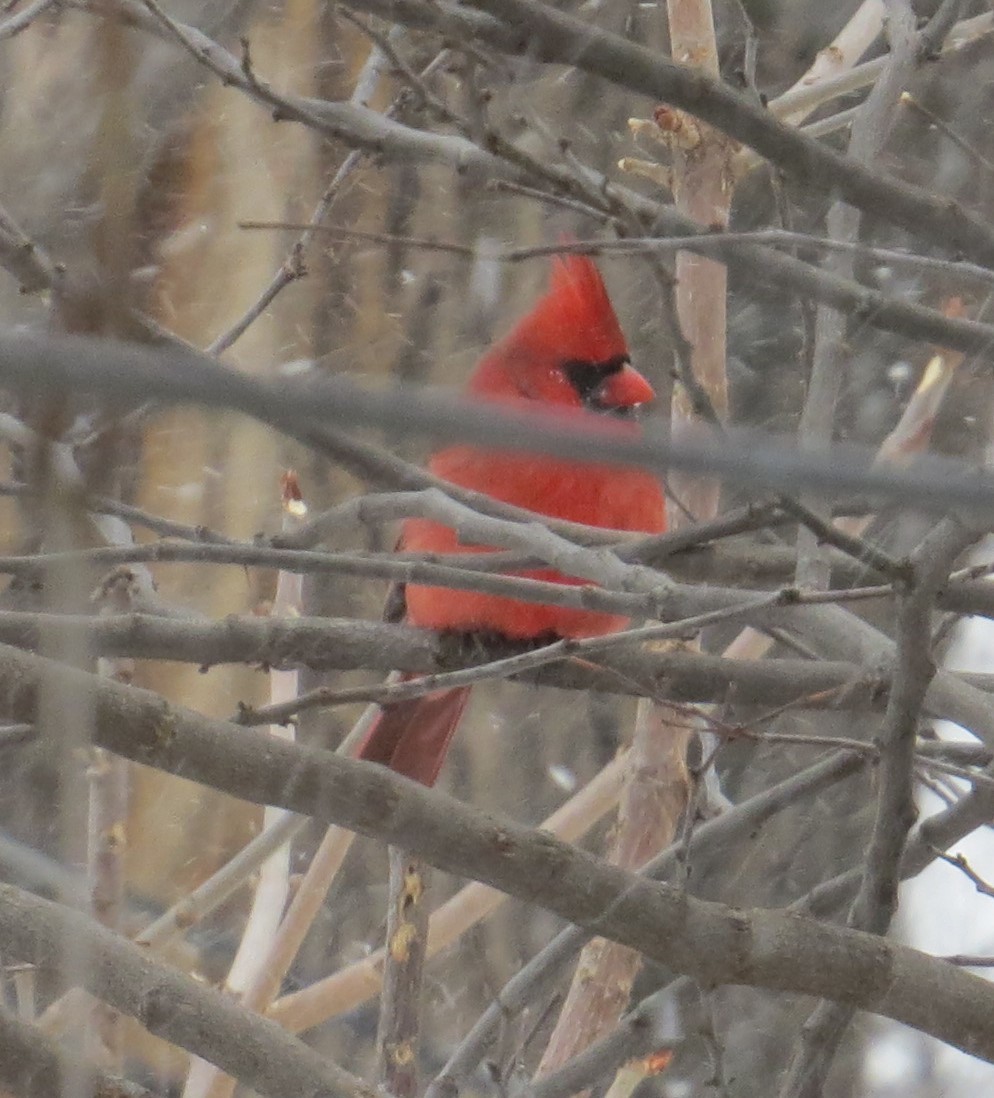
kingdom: Animalia
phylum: Chordata
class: Aves
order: Passeriformes
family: Cardinalidae
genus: Cardinalis
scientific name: Cardinalis cardinalis
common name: Northern cardinal
